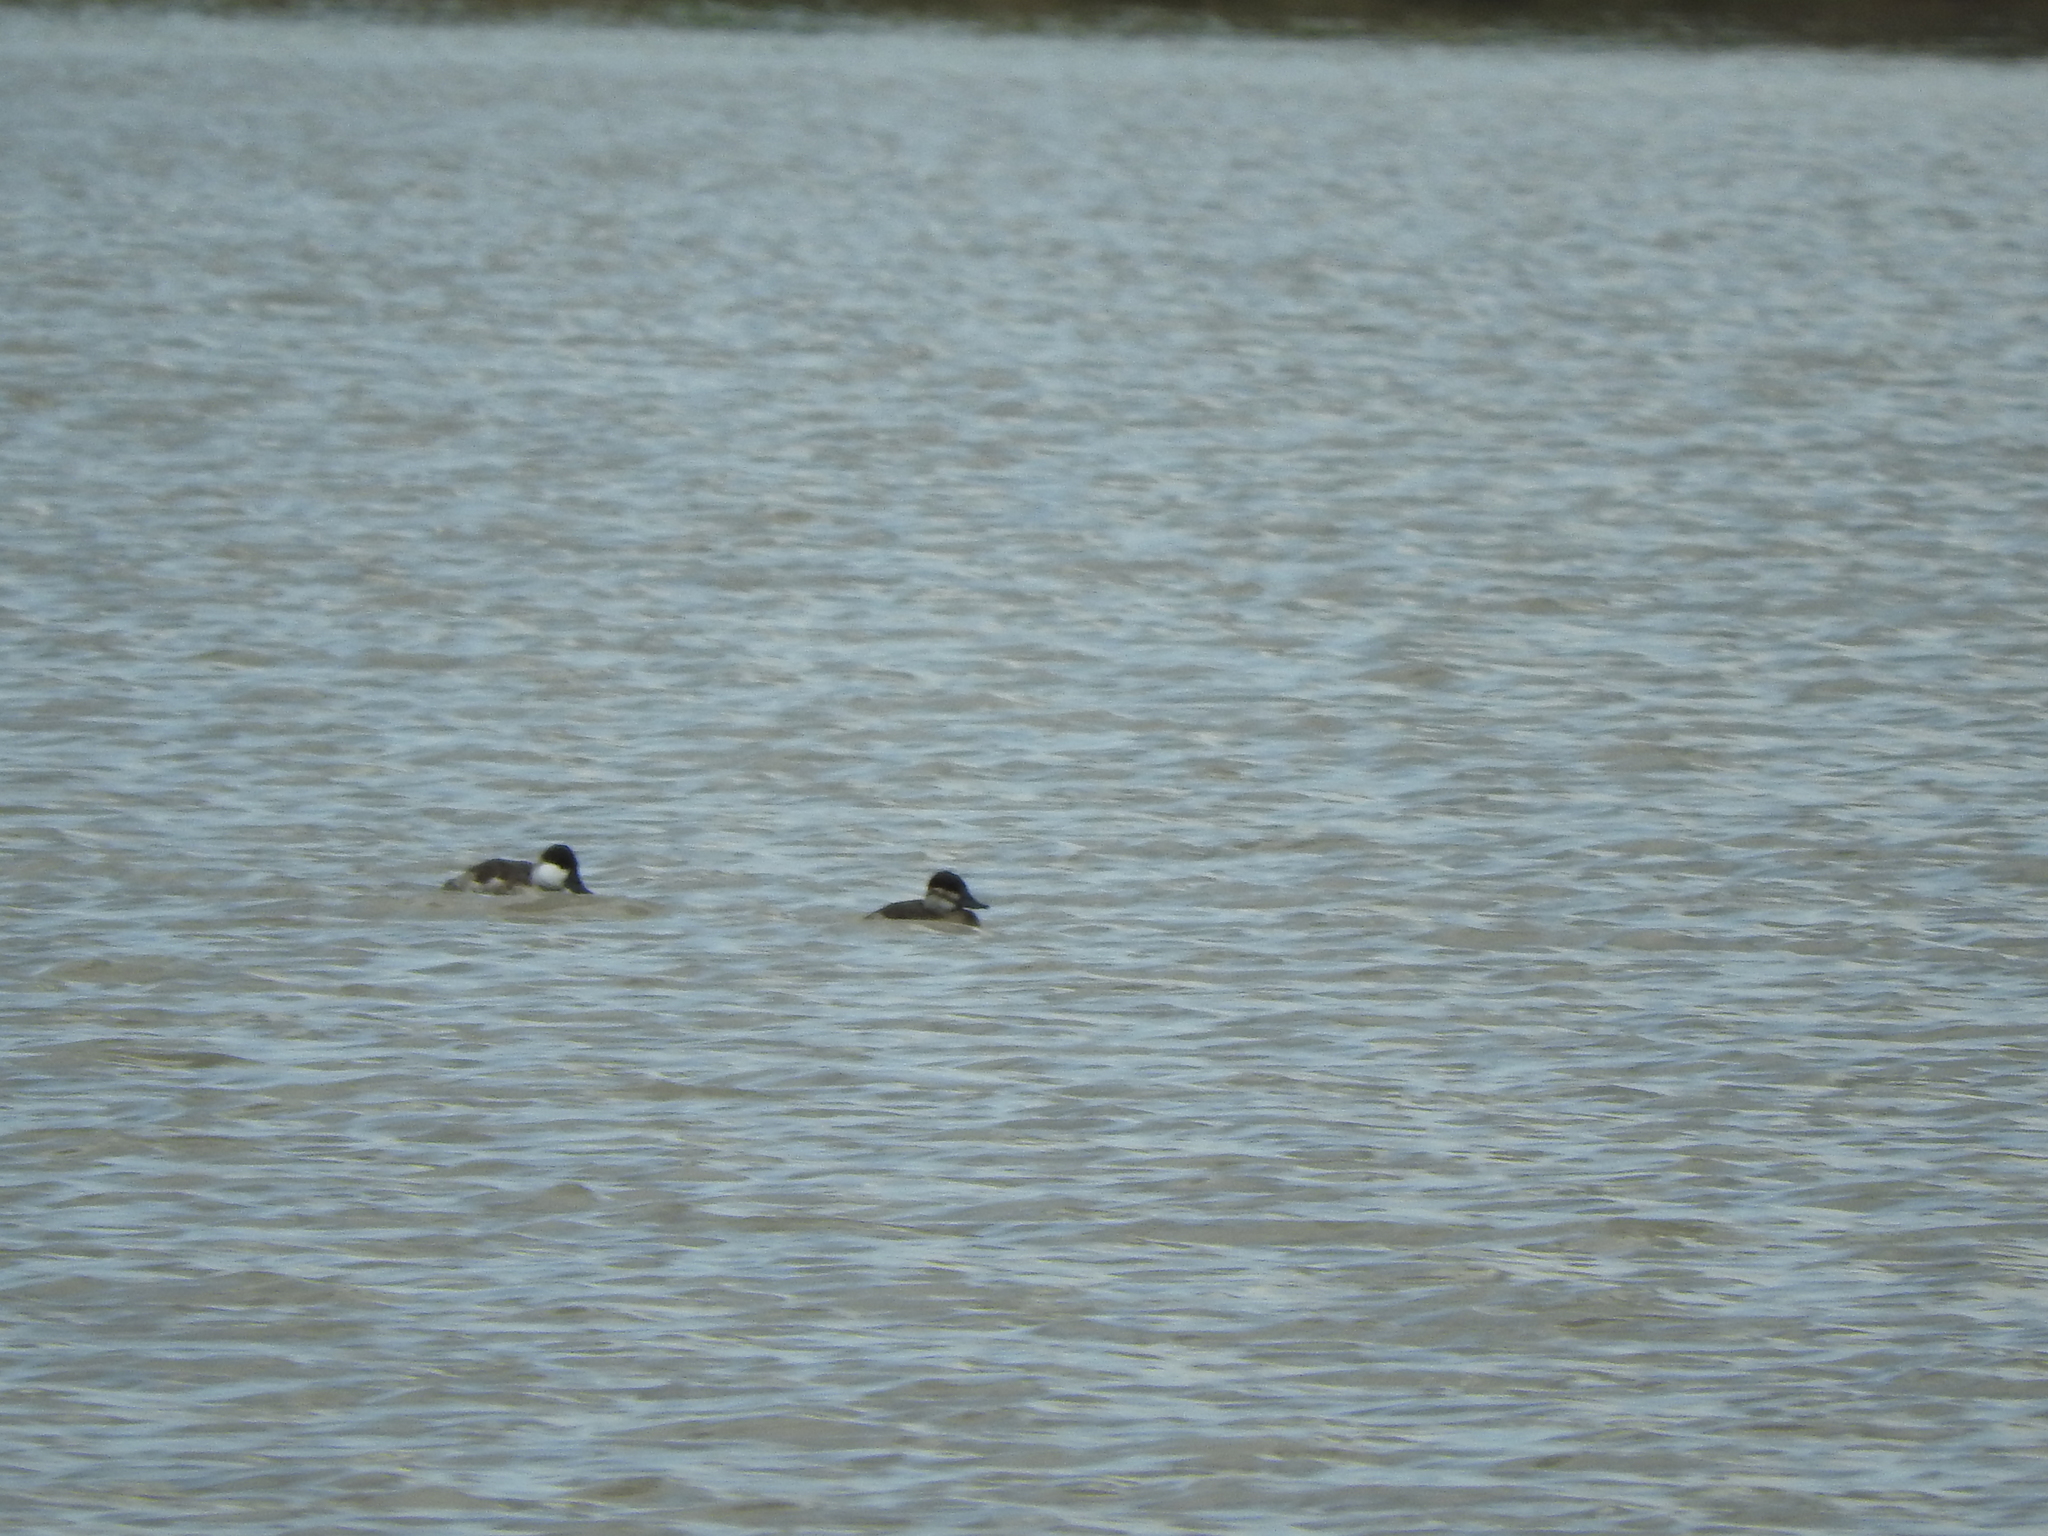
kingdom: Animalia
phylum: Chordata
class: Aves
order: Anseriformes
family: Anatidae
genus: Oxyura
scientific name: Oxyura jamaicensis
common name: Ruddy duck
